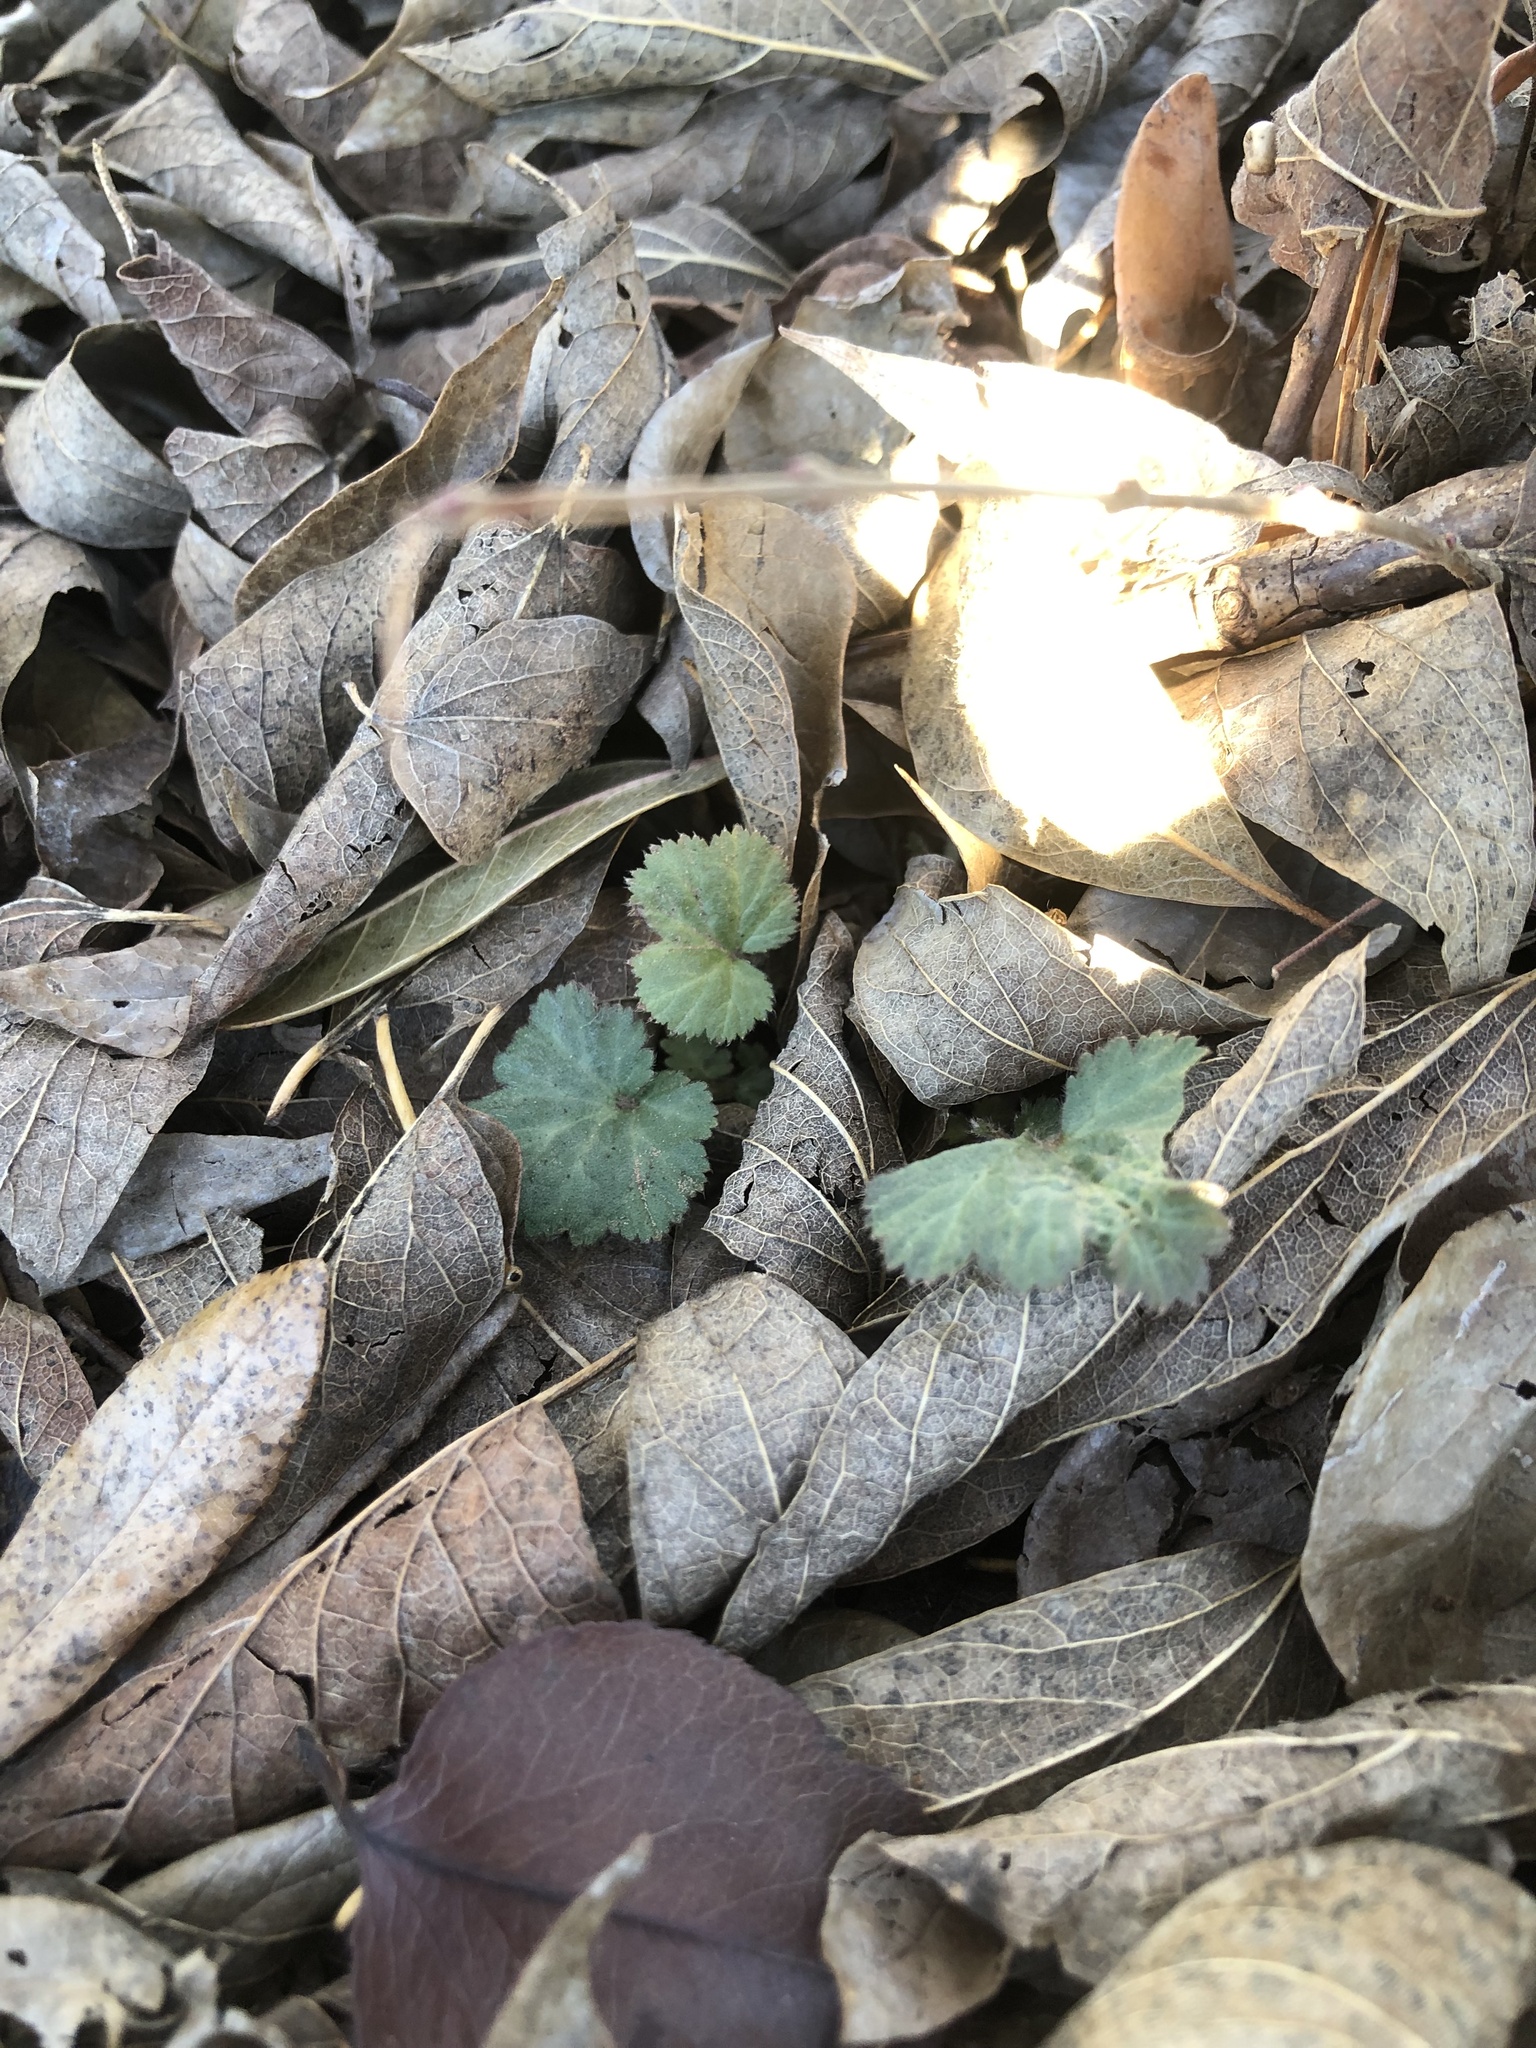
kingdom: Plantae
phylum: Tracheophyta
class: Magnoliopsida
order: Rosales
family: Rosaceae
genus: Geum
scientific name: Geum canadense
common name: White avens
